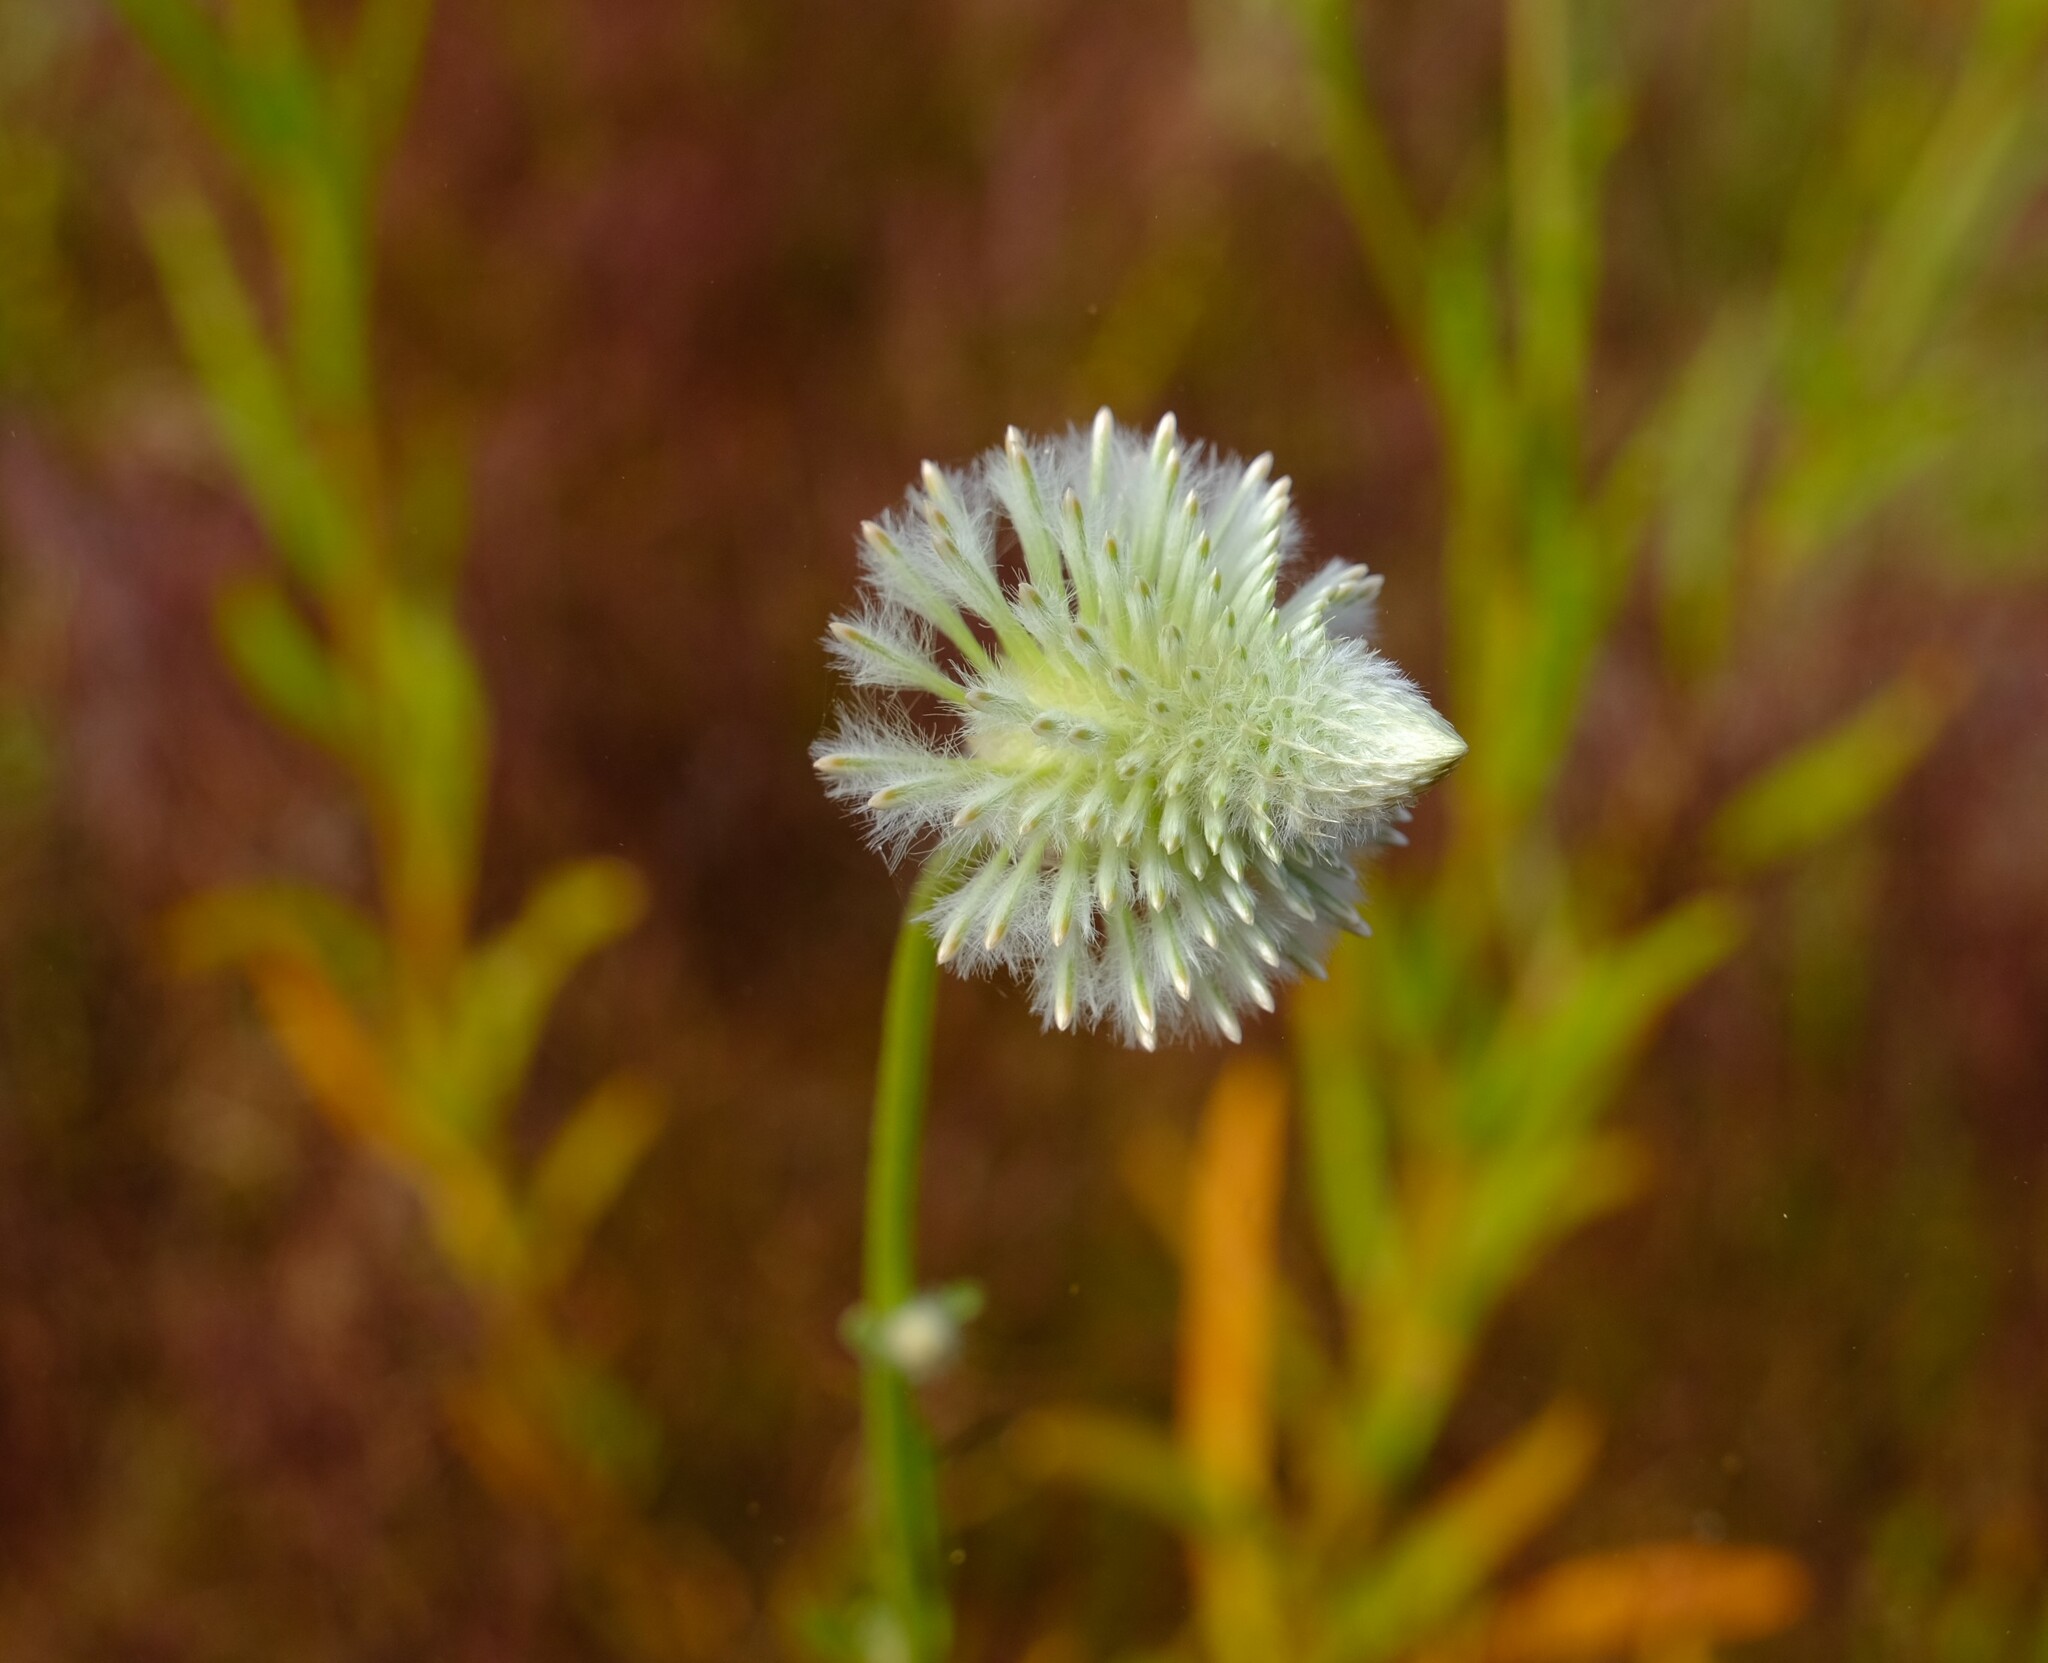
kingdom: Plantae
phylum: Tracheophyta
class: Magnoliopsida
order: Caryophyllales
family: Amaranthaceae
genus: Ptilotus
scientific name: Ptilotus xerophilus
